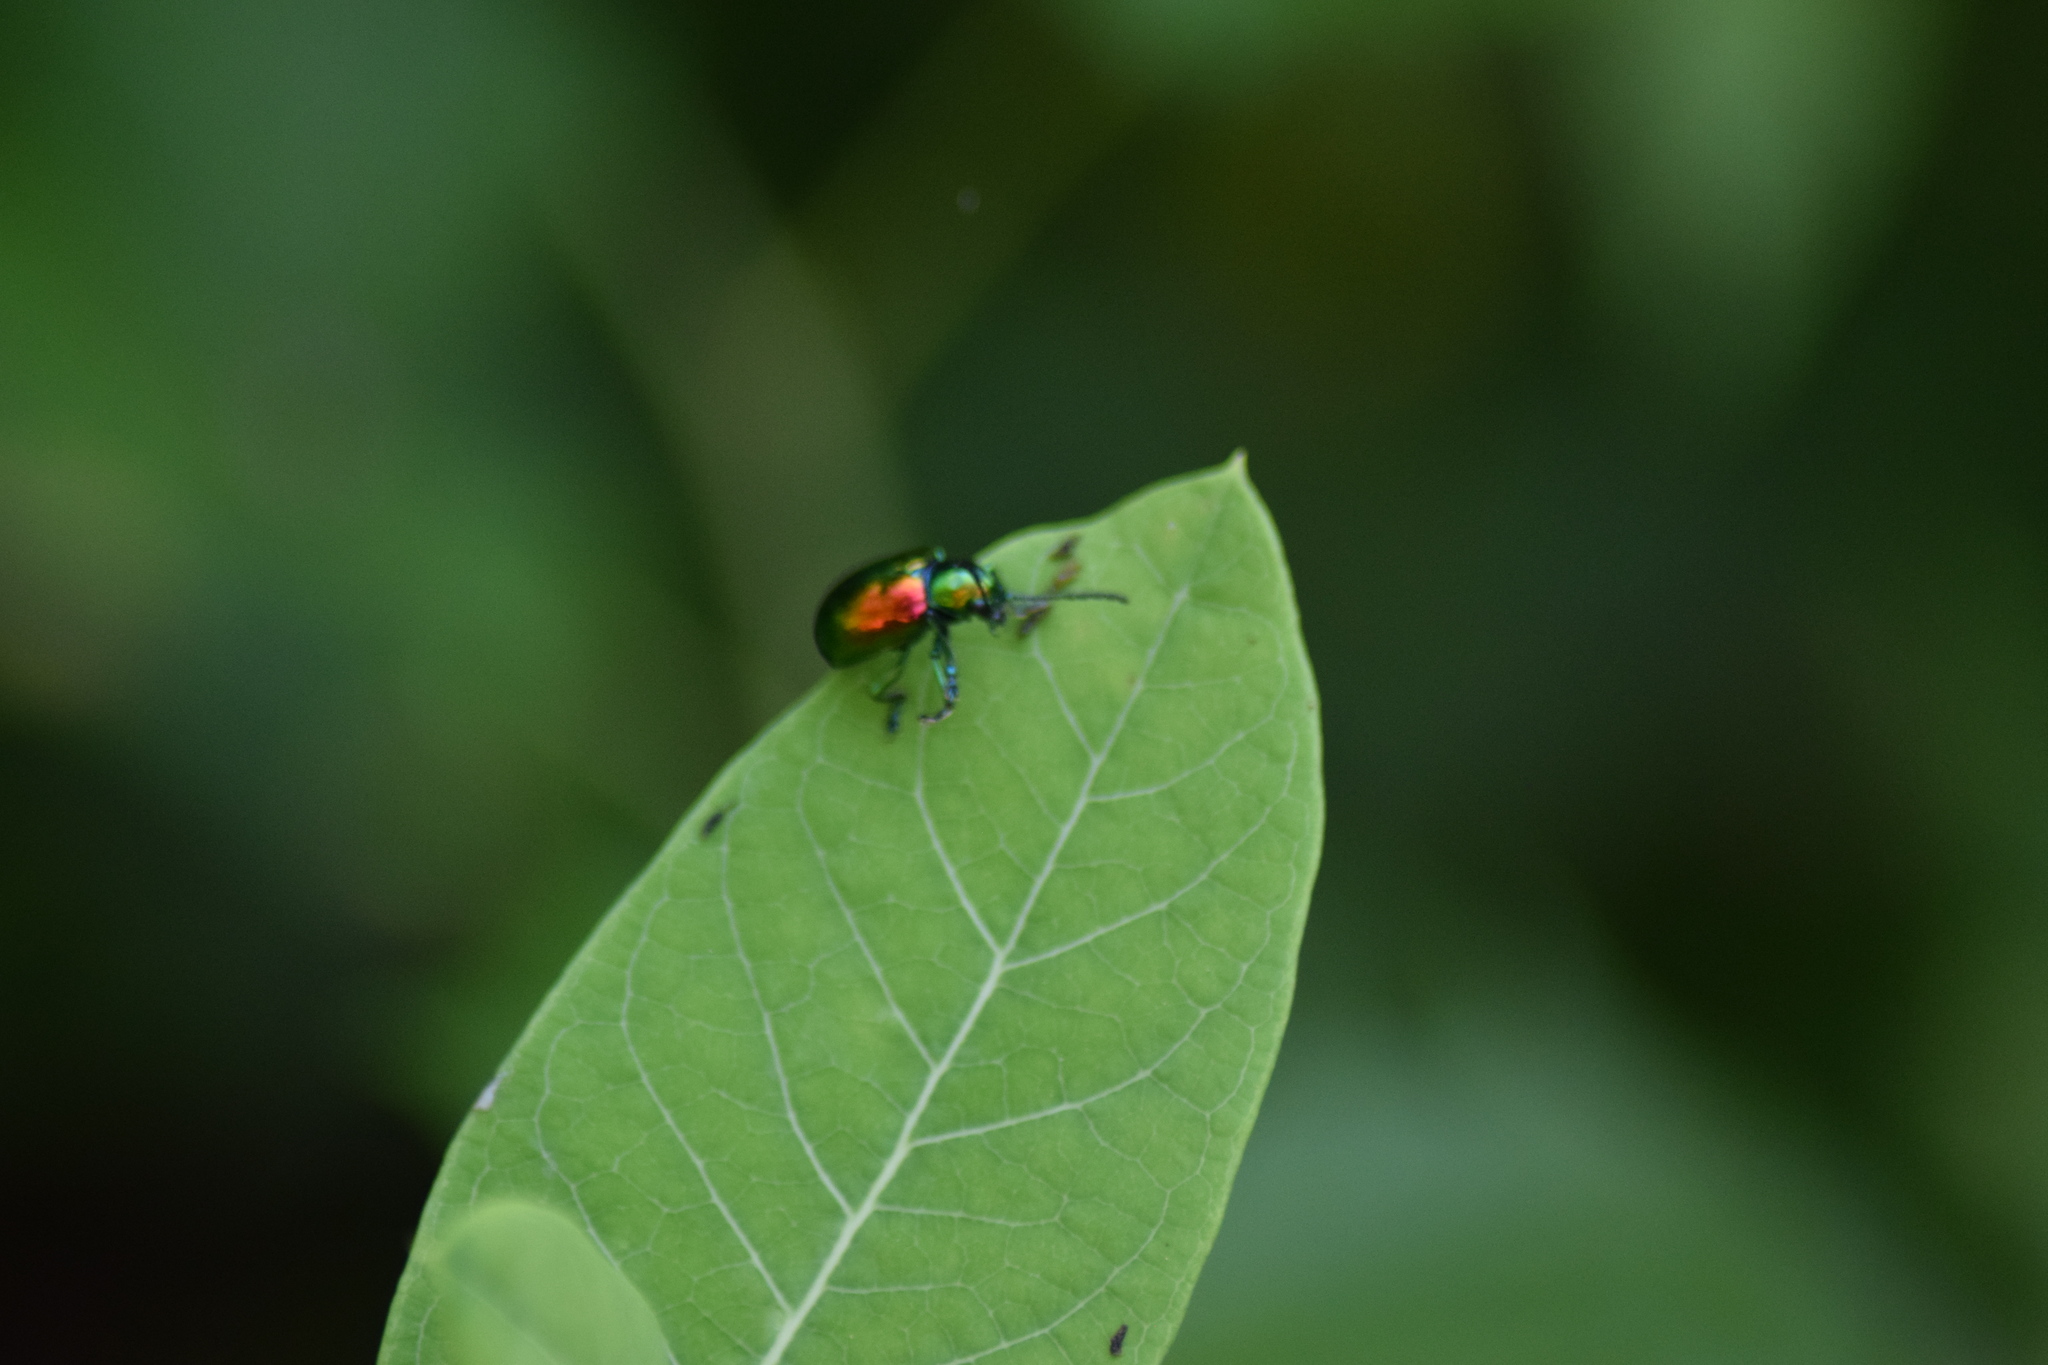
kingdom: Animalia
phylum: Arthropoda
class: Insecta
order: Coleoptera
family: Chrysomelidae
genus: Chrysochus
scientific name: Chrysochus auratus
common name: Dogbane leaf beetle
